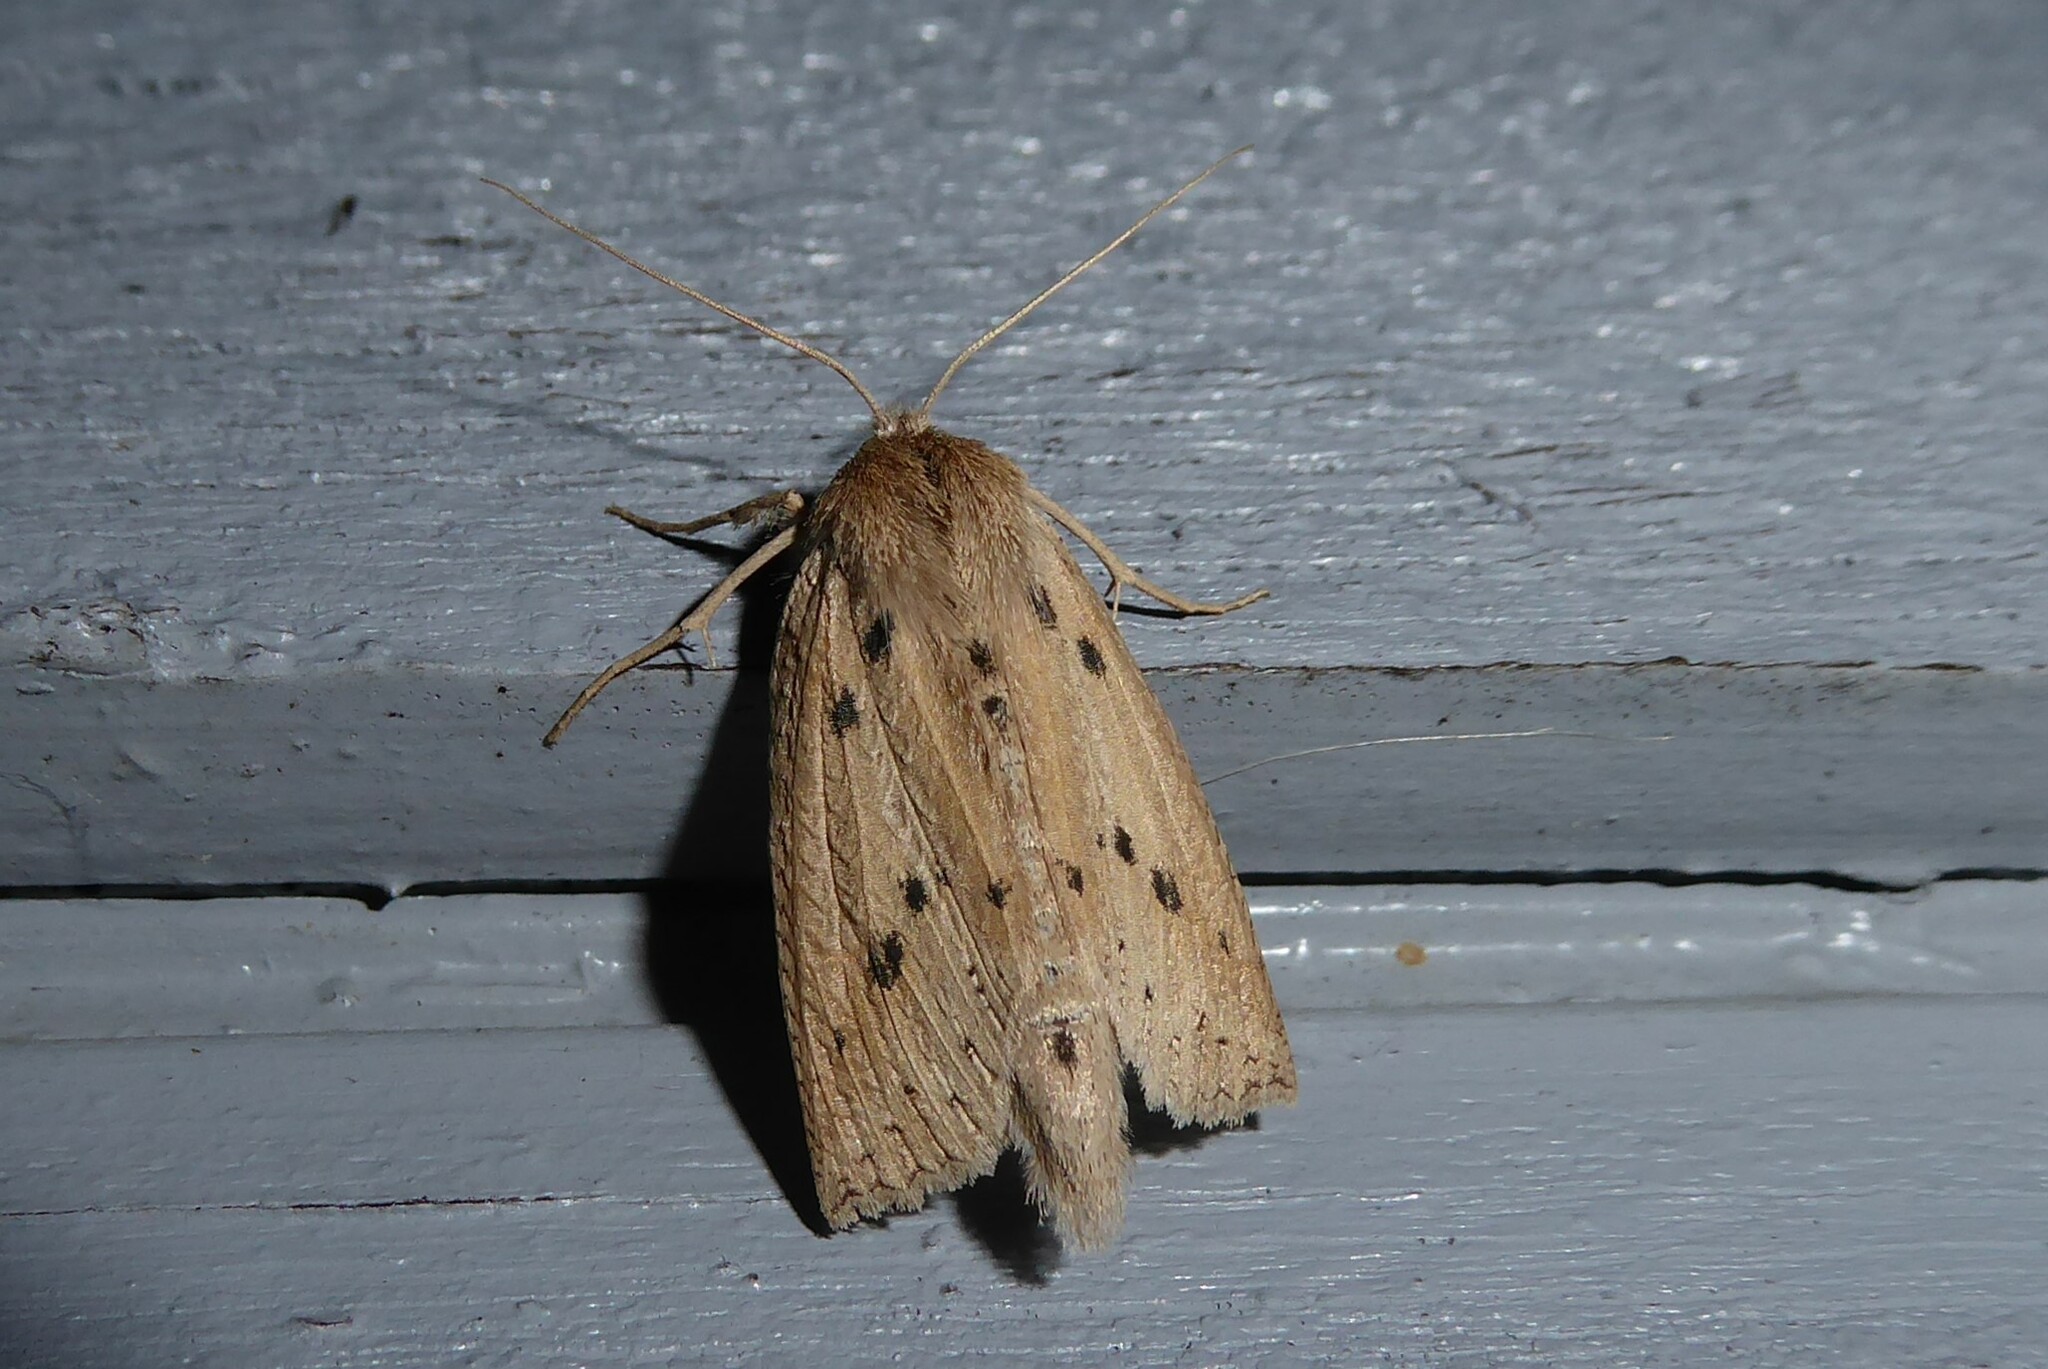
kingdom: Animalia
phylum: Arthropoda
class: Insecta
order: Lepidoptera
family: Geometridae
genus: Declana
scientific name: Declana leptomera
